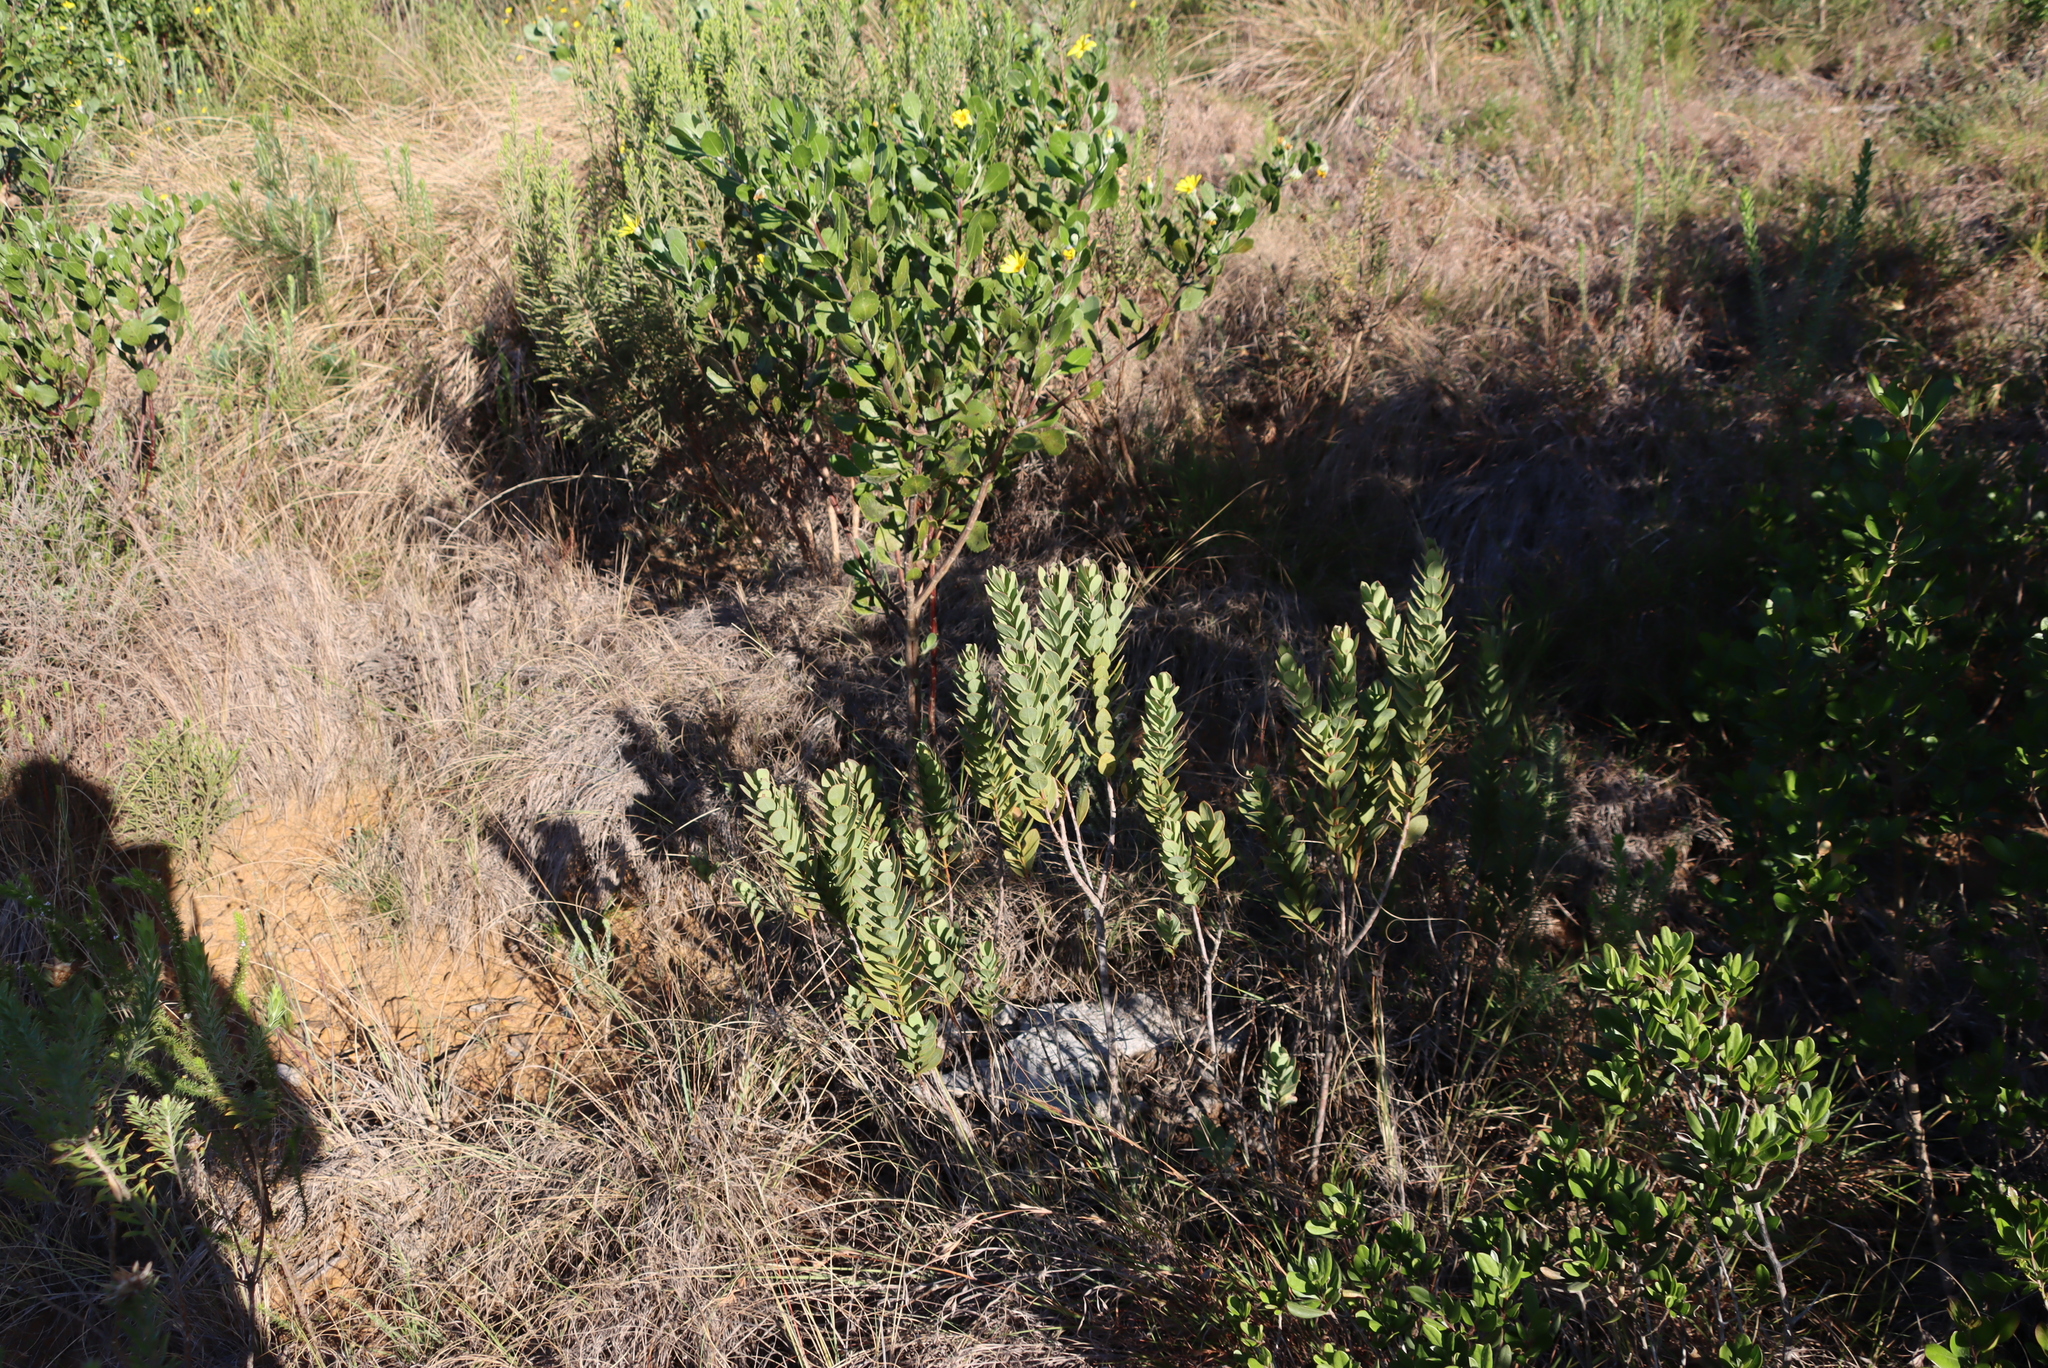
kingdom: Plantae
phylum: Tracheophyta
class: Magnoliopsida
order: Santalales
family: Santalaceae
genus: Osyris
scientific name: Osyris compressa
